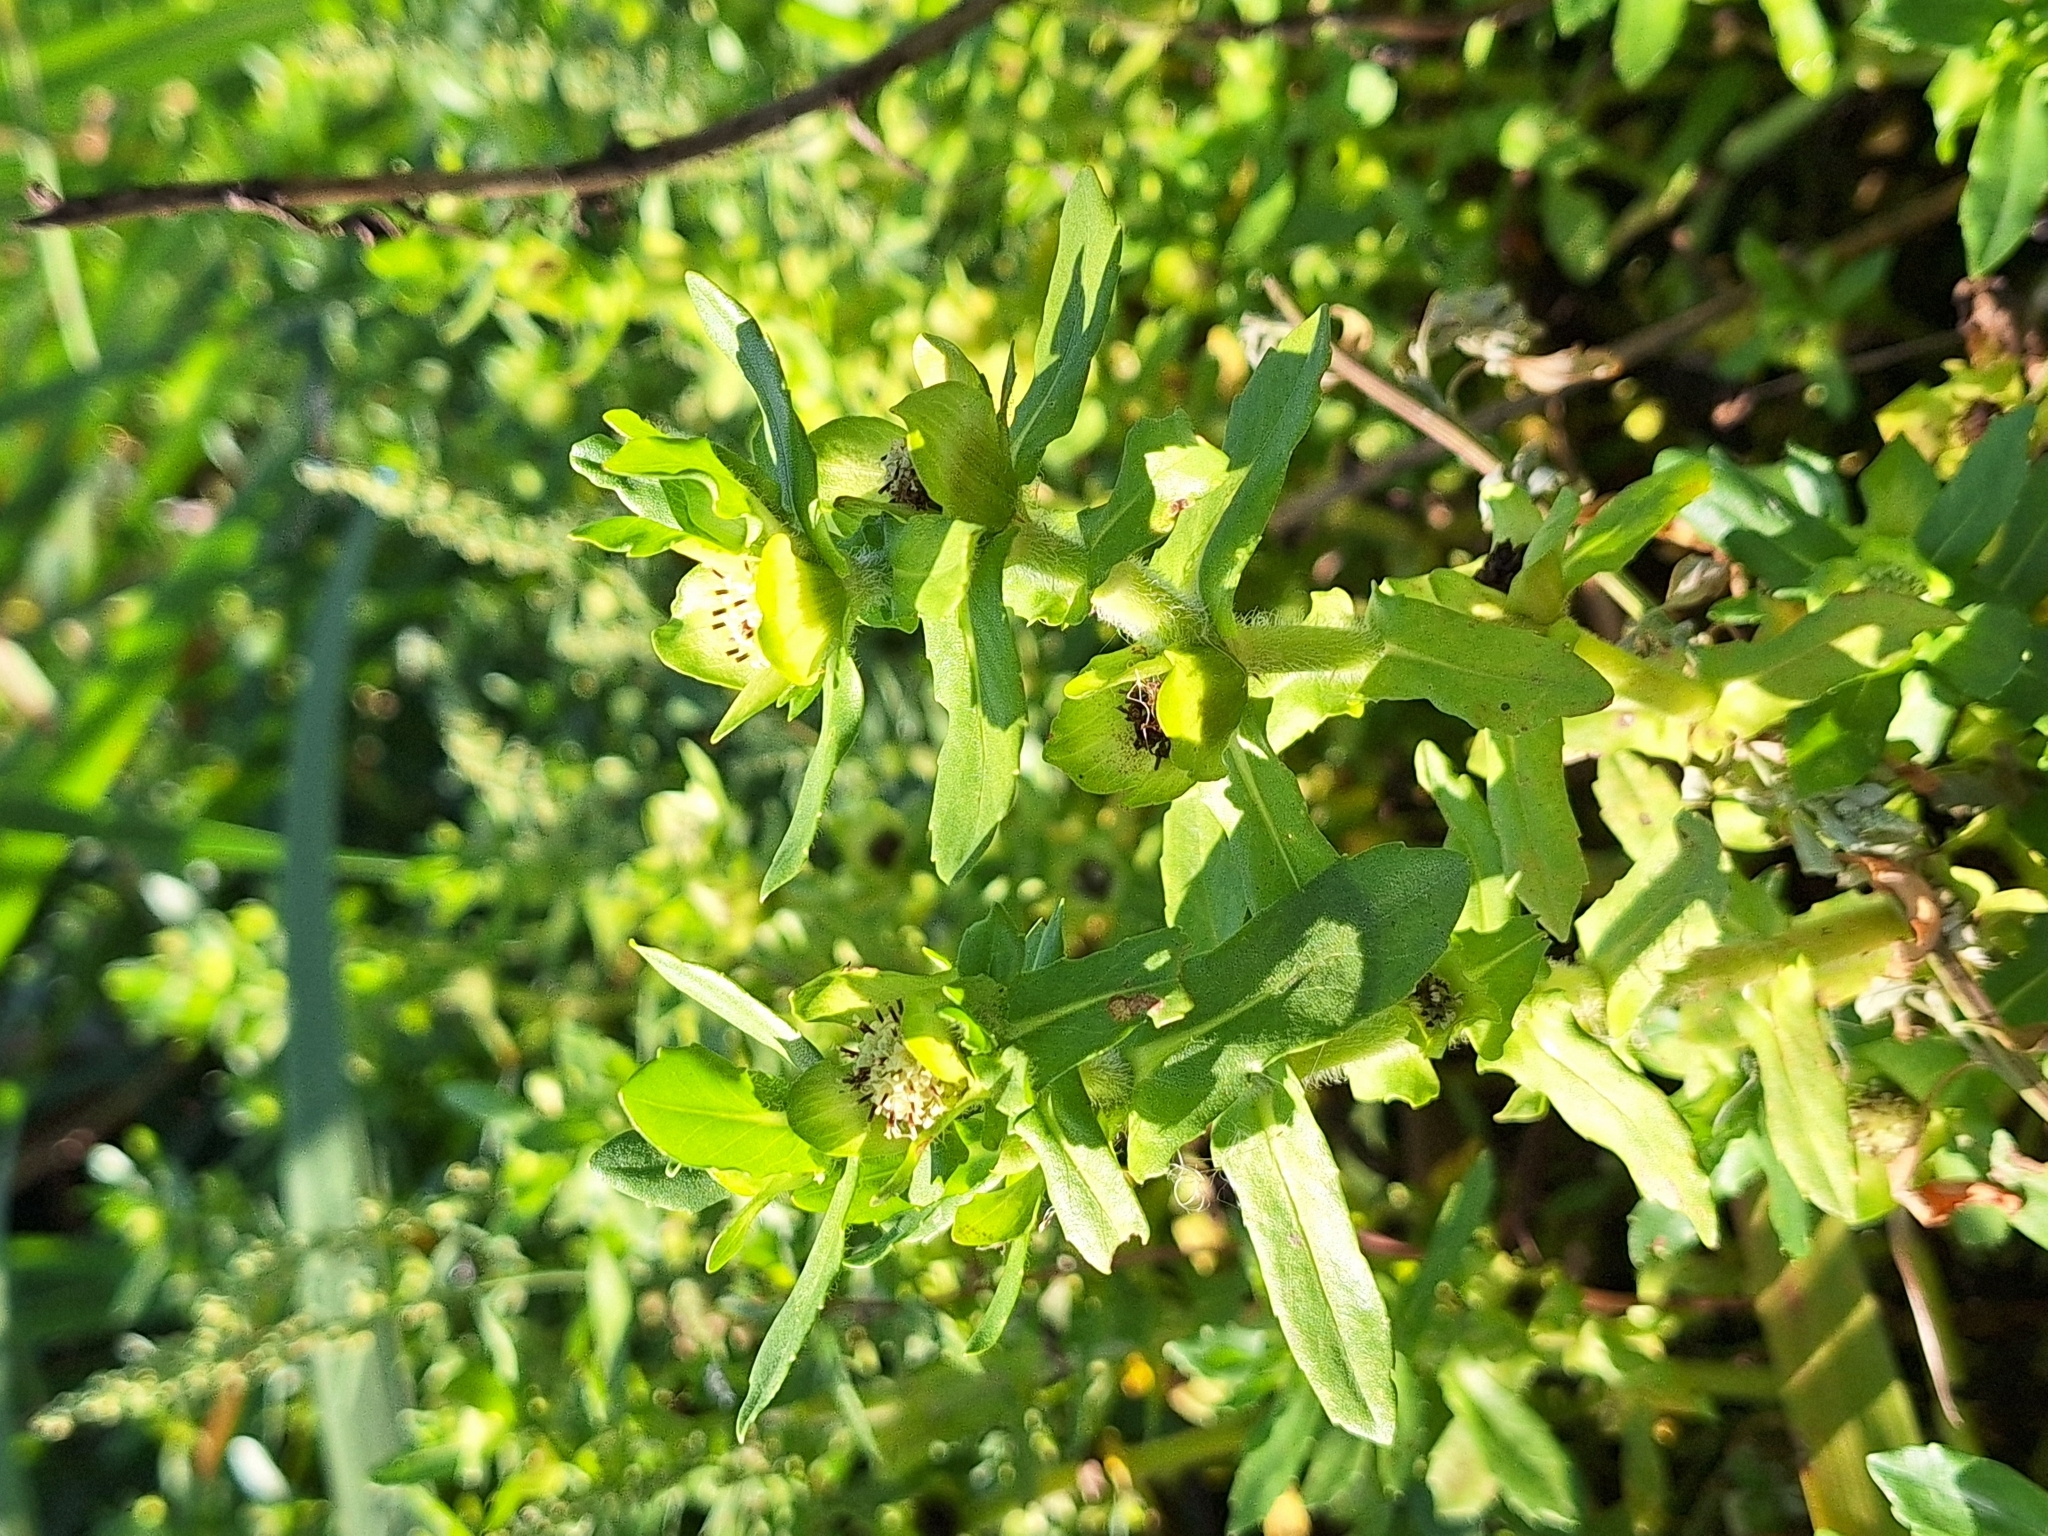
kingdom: Plantae
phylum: Tracheophyta
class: Magnoliopsida
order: Asterales
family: Asteraceae
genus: Enydra
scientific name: Enydra fluctuans
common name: Buffalo spinach
